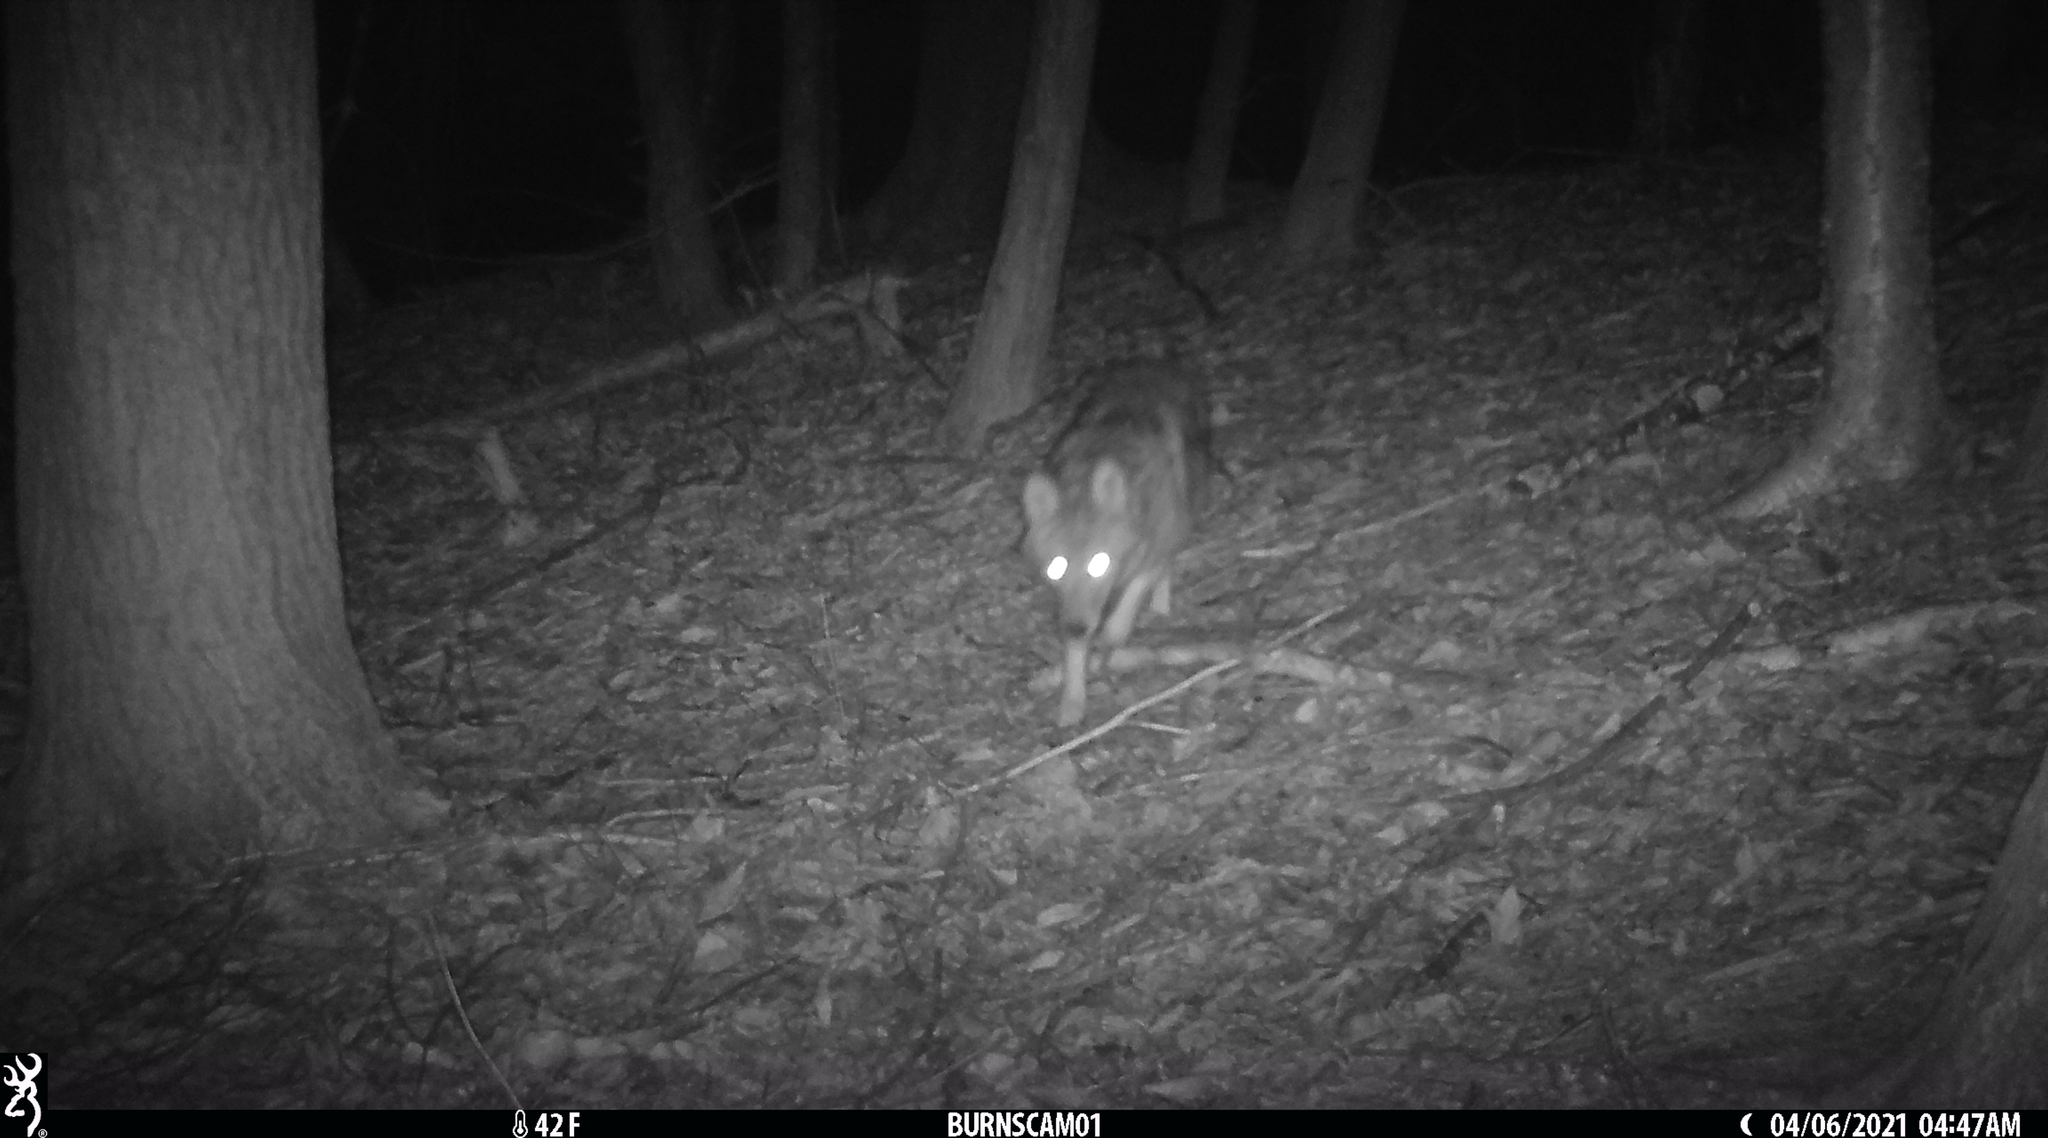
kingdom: Animalia
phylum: Chordata
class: Mammalia
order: Carnivora
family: Canidae
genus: Canis
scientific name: Canis latrans
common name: Coyote
